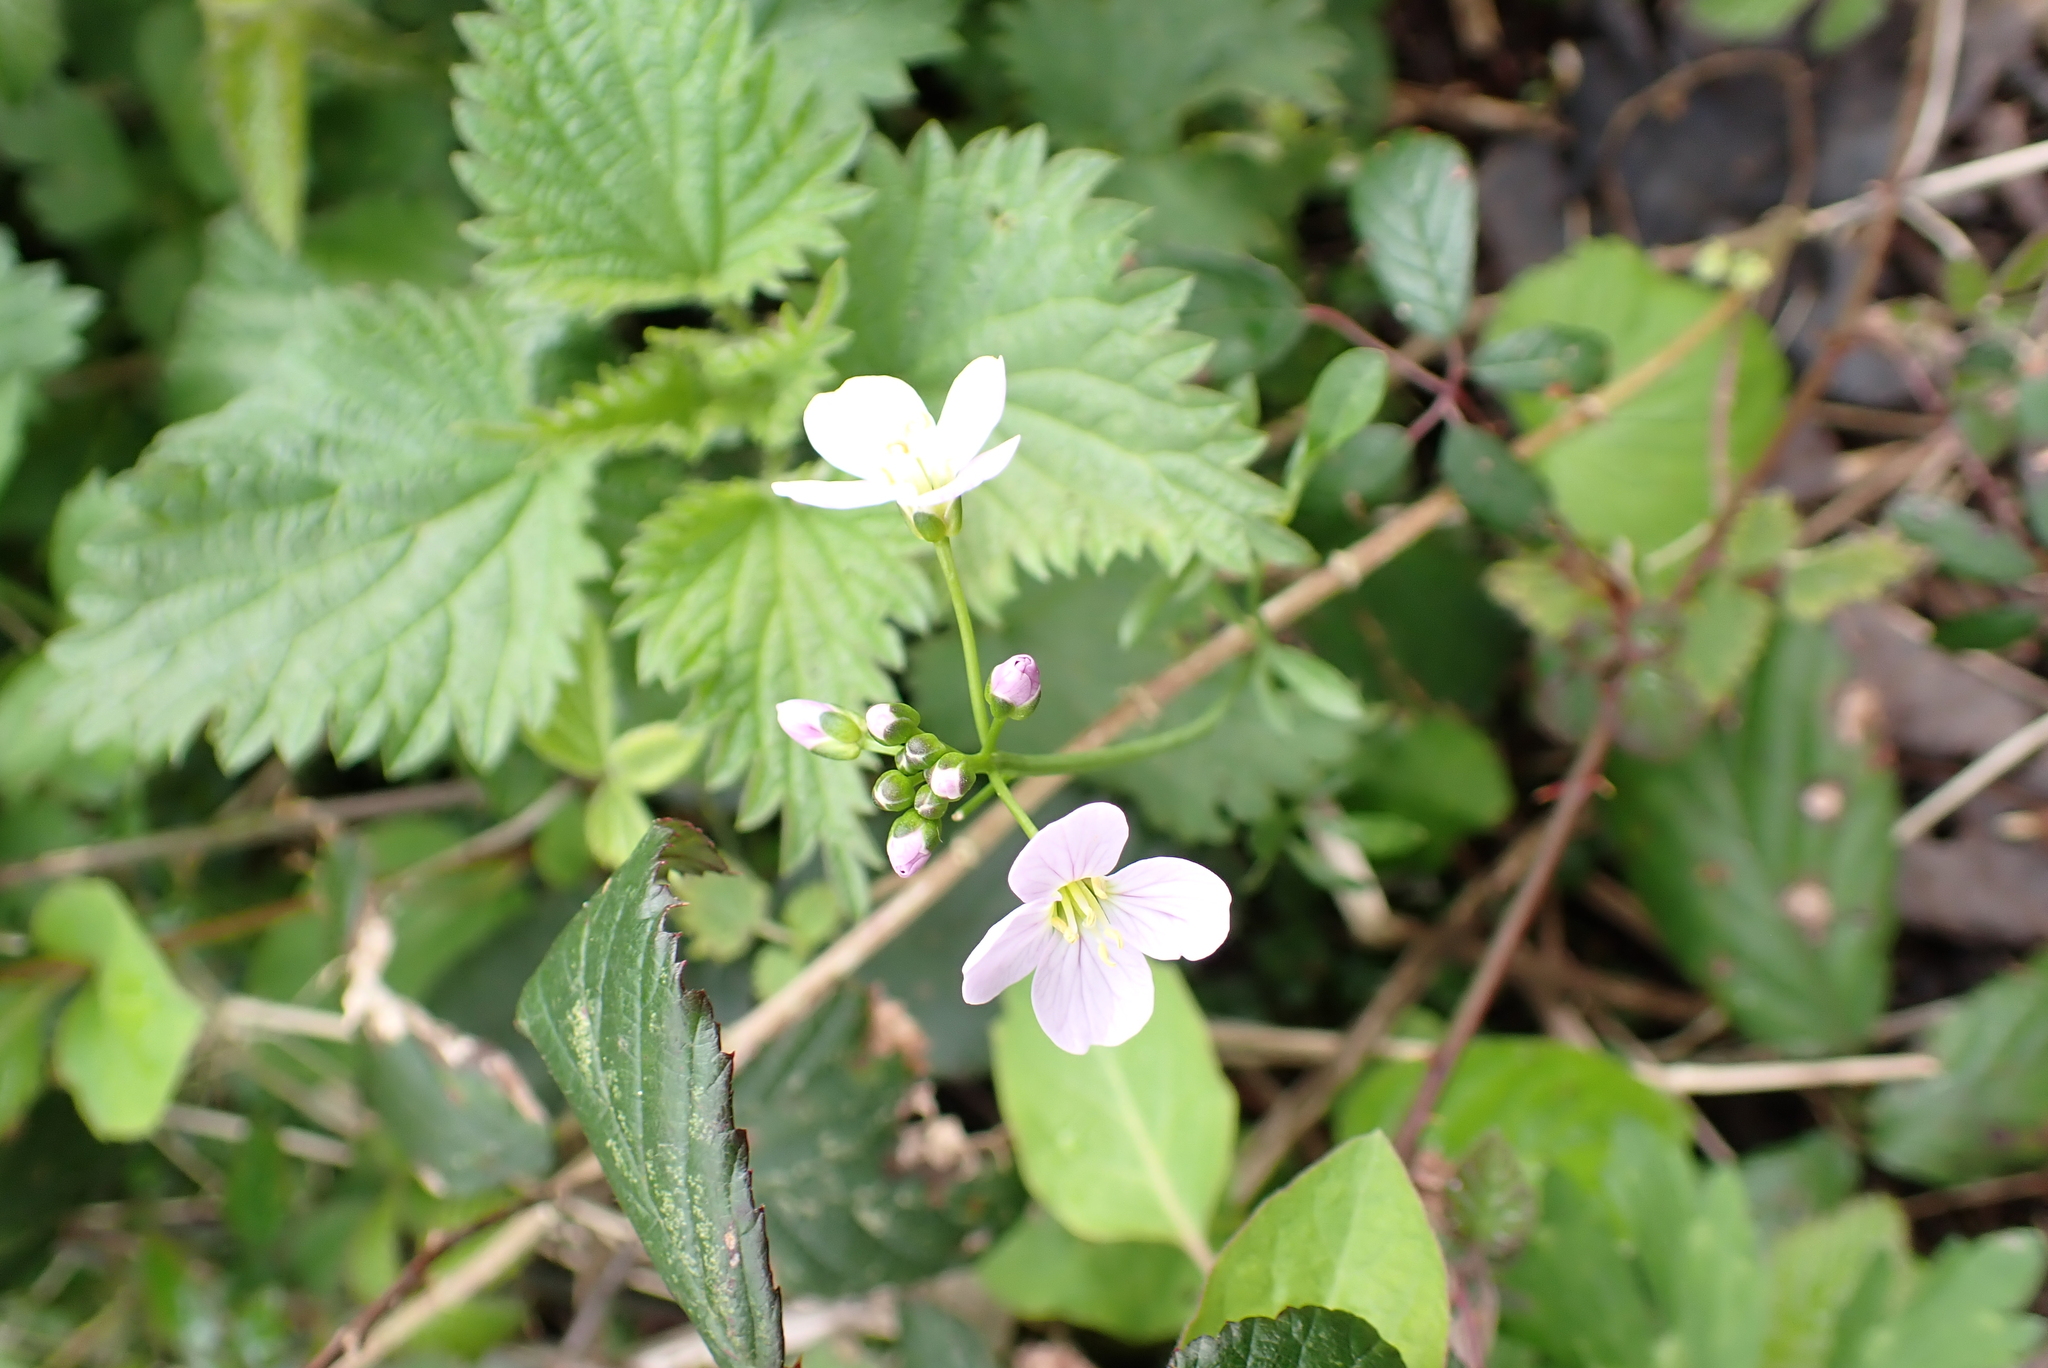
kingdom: Plantae
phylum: Tracheophyta
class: Magnoliopsida
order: Brassicales
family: Brassicaceae
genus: Cardamine
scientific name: Cardamine pratensis
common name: Cuckoo flower
